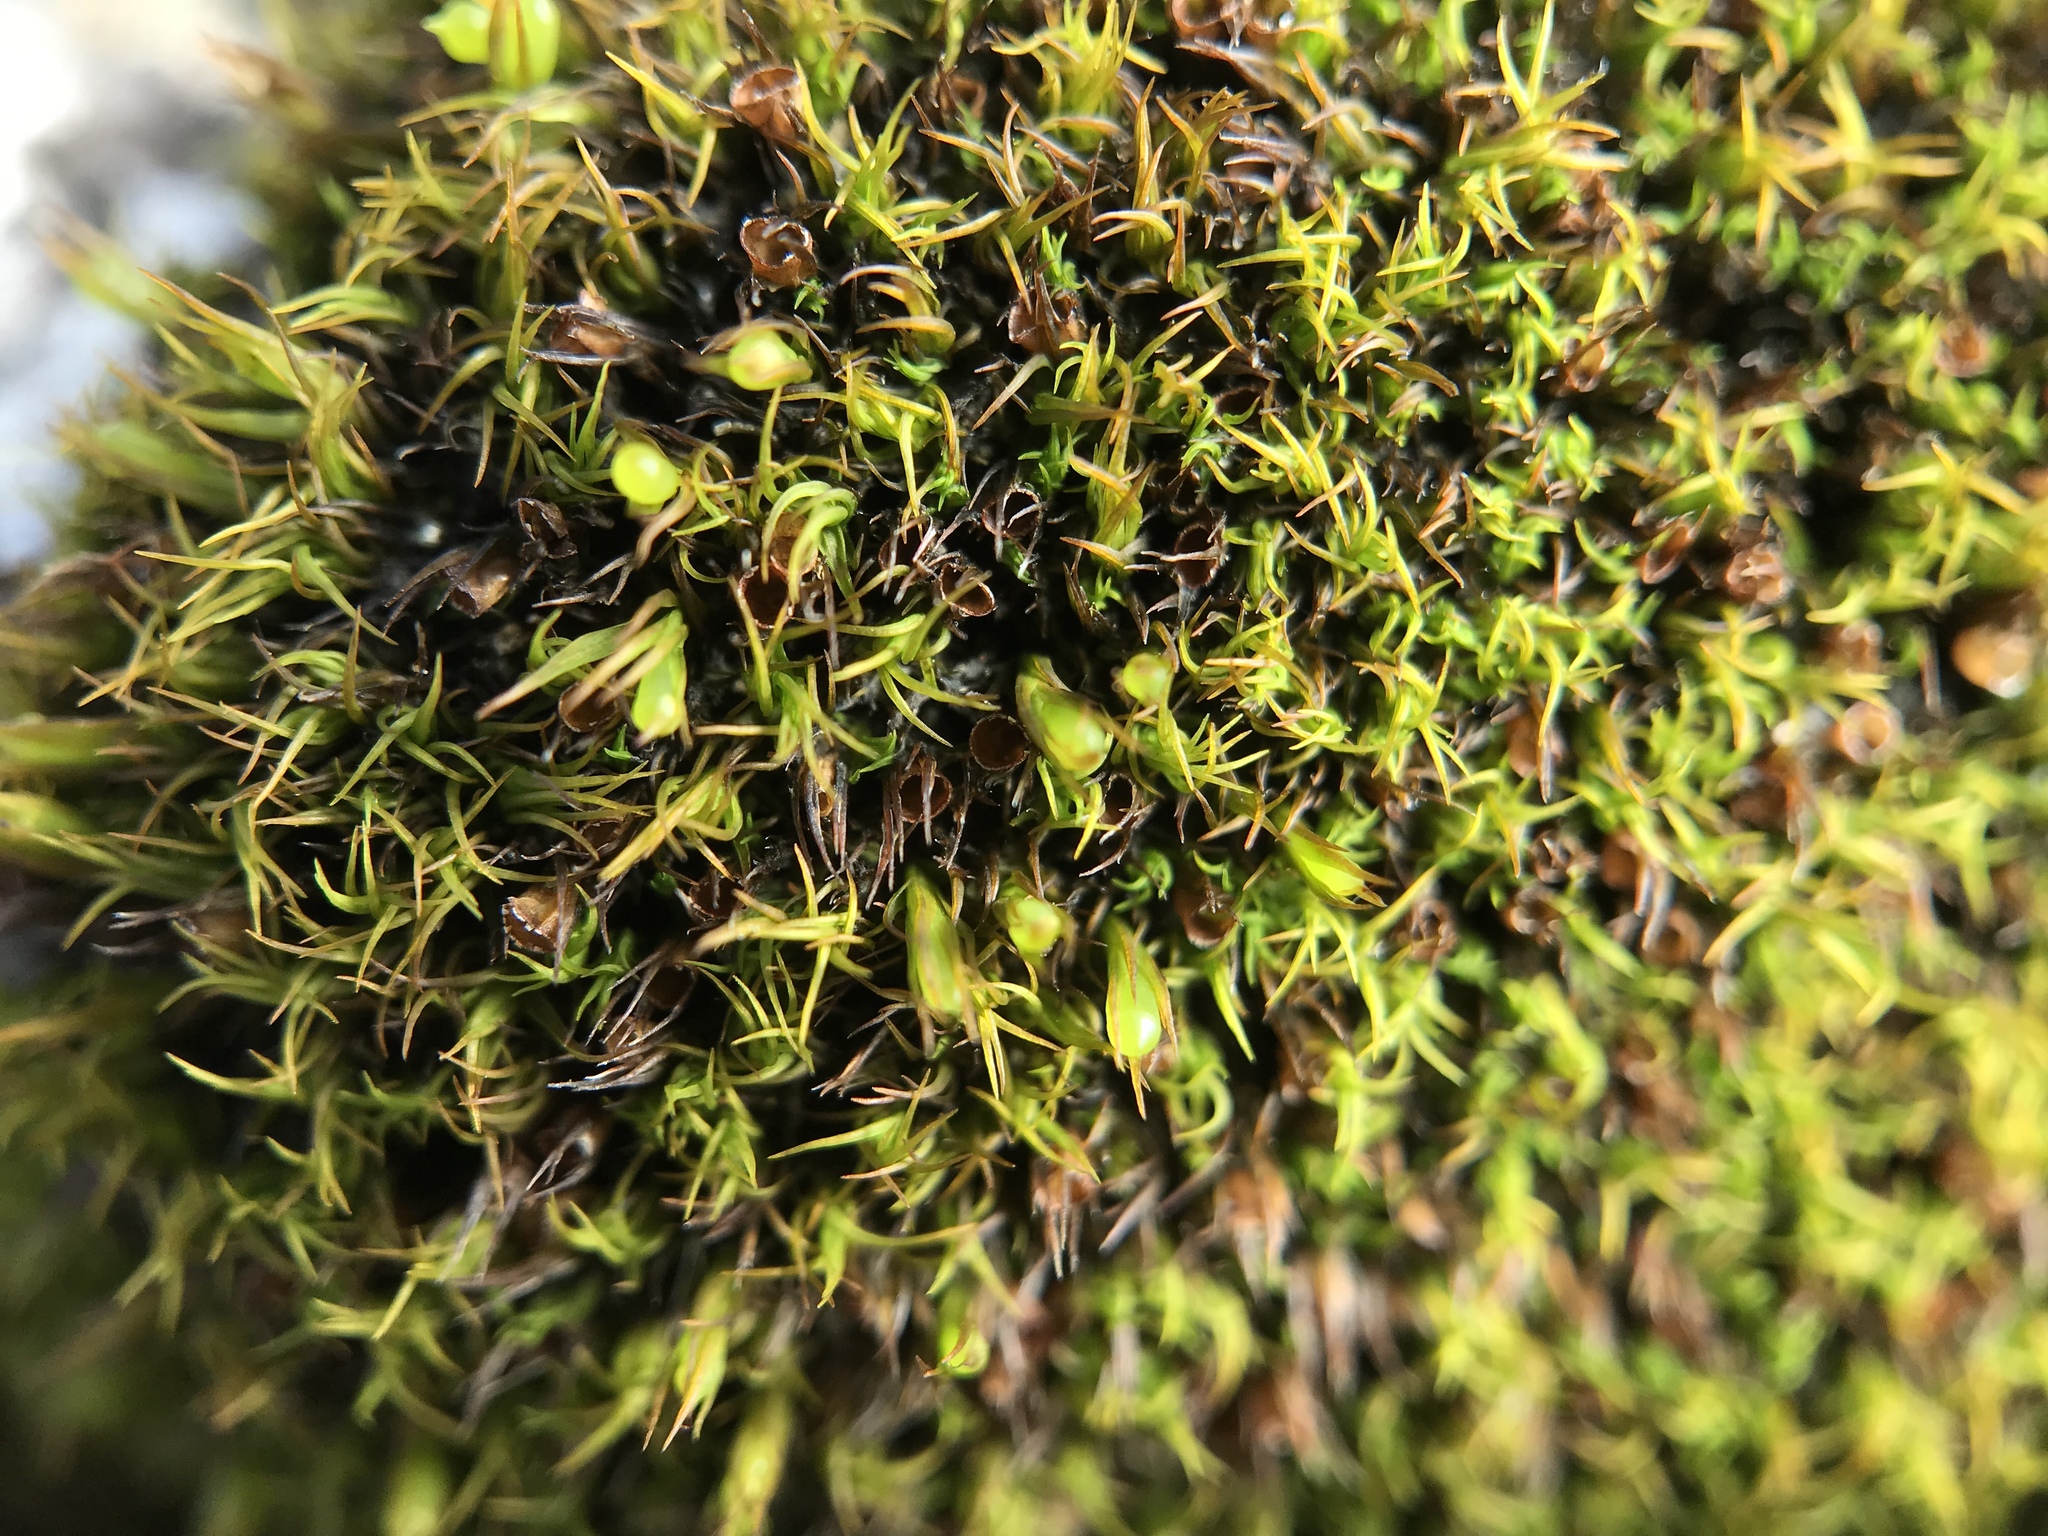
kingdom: Plantae
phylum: Bryophyta
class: Bryopsida
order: Grimmiales
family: Grimmiaceae
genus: Schistidium
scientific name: Schistidium maritimum
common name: Seaside bloom moss
